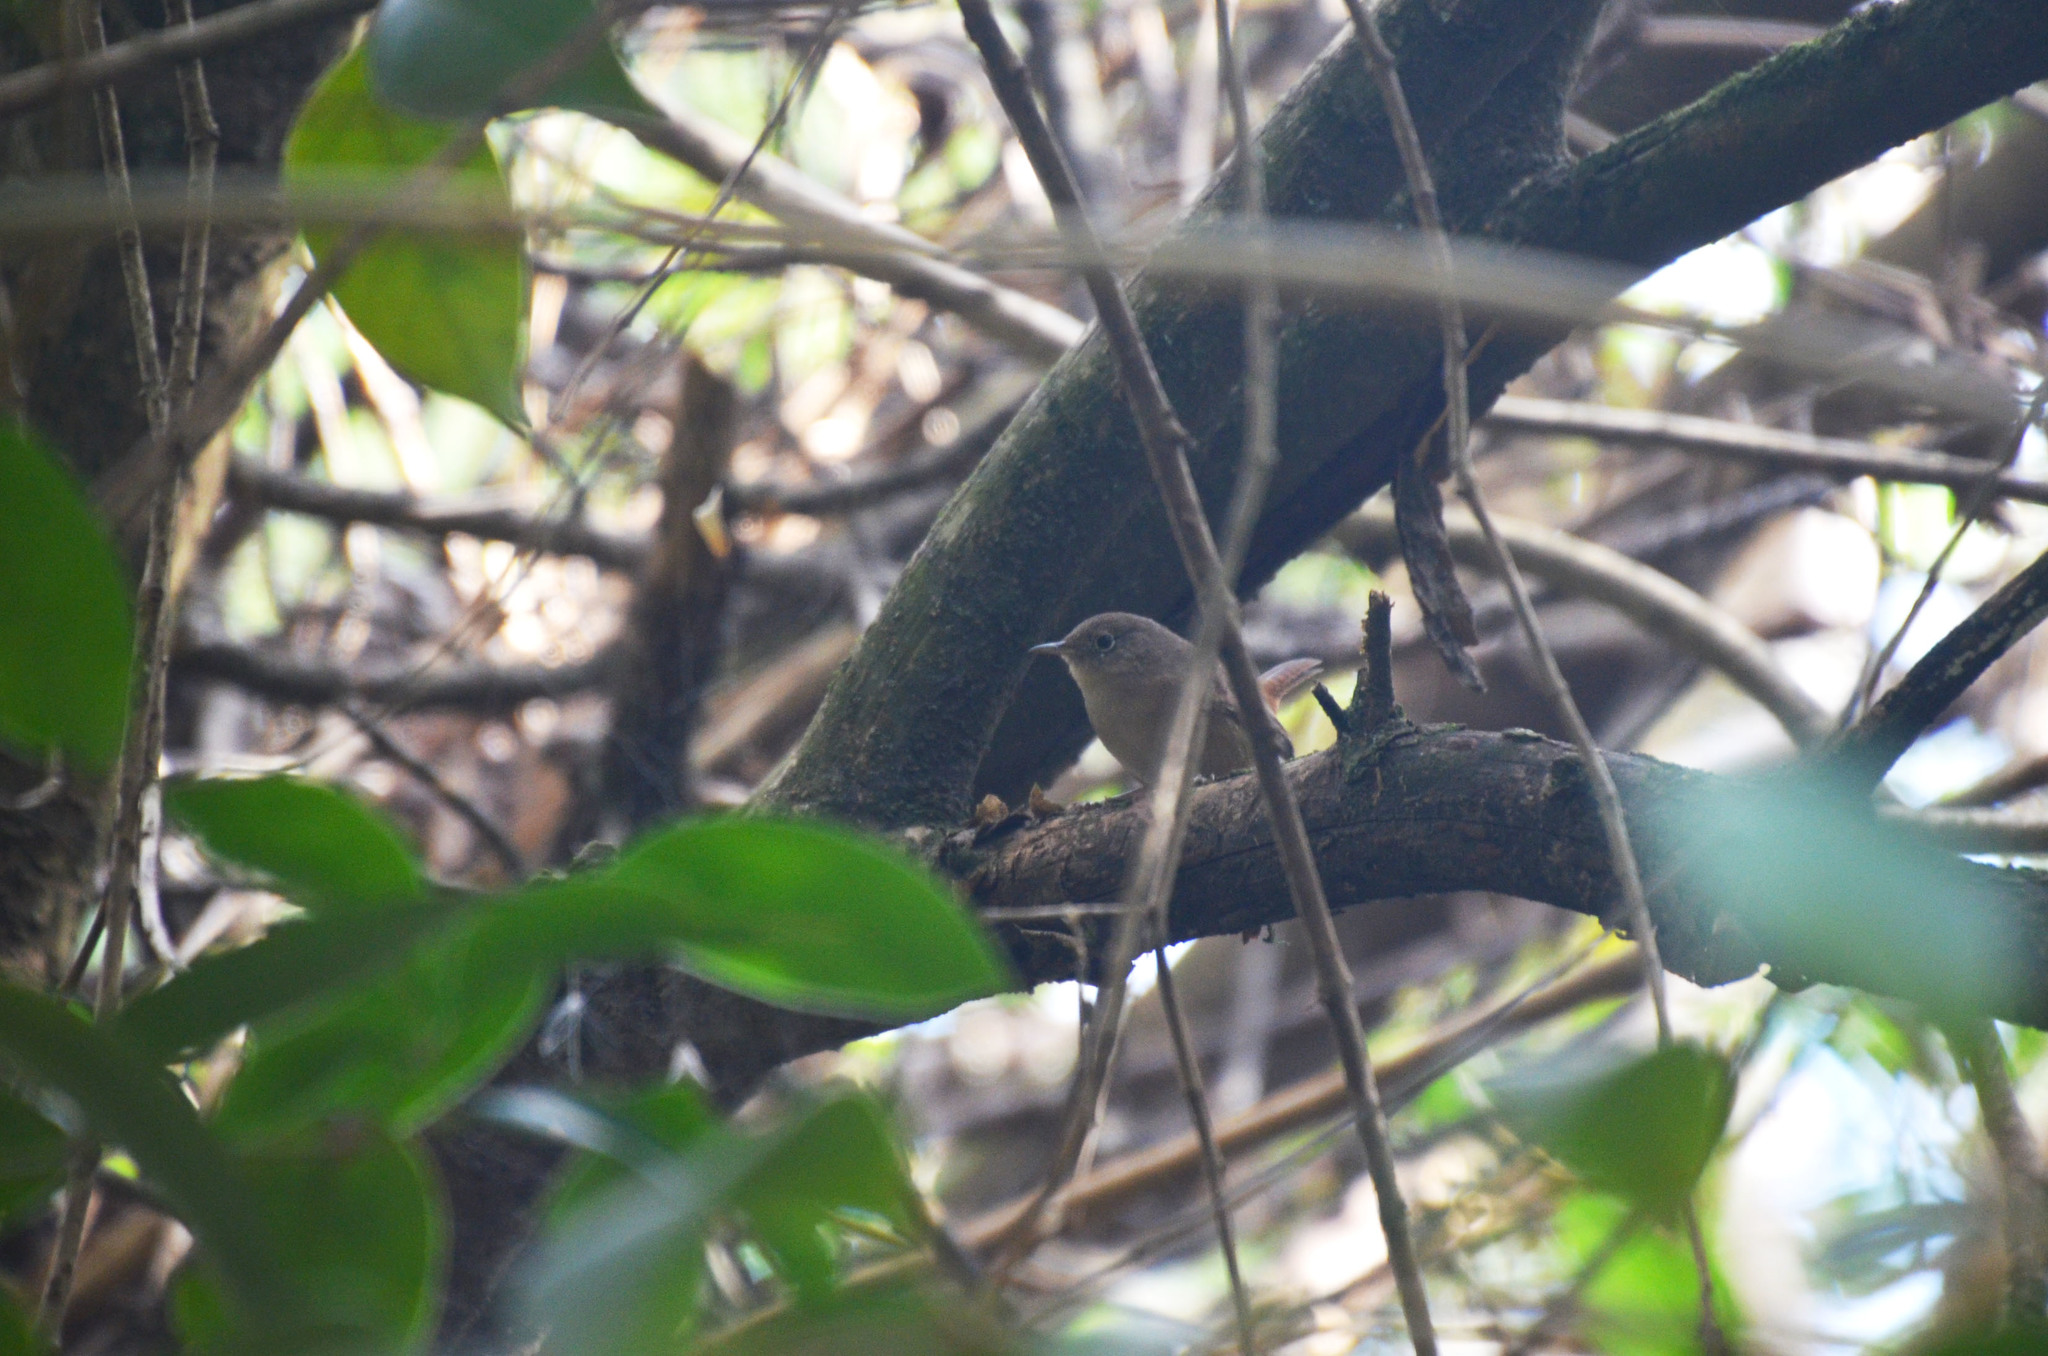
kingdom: Animalia
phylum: Chordata
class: Aves
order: Passeriformes
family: Troglodytidae
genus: Troglodytes
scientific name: Troglodytes aedon
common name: House wren
